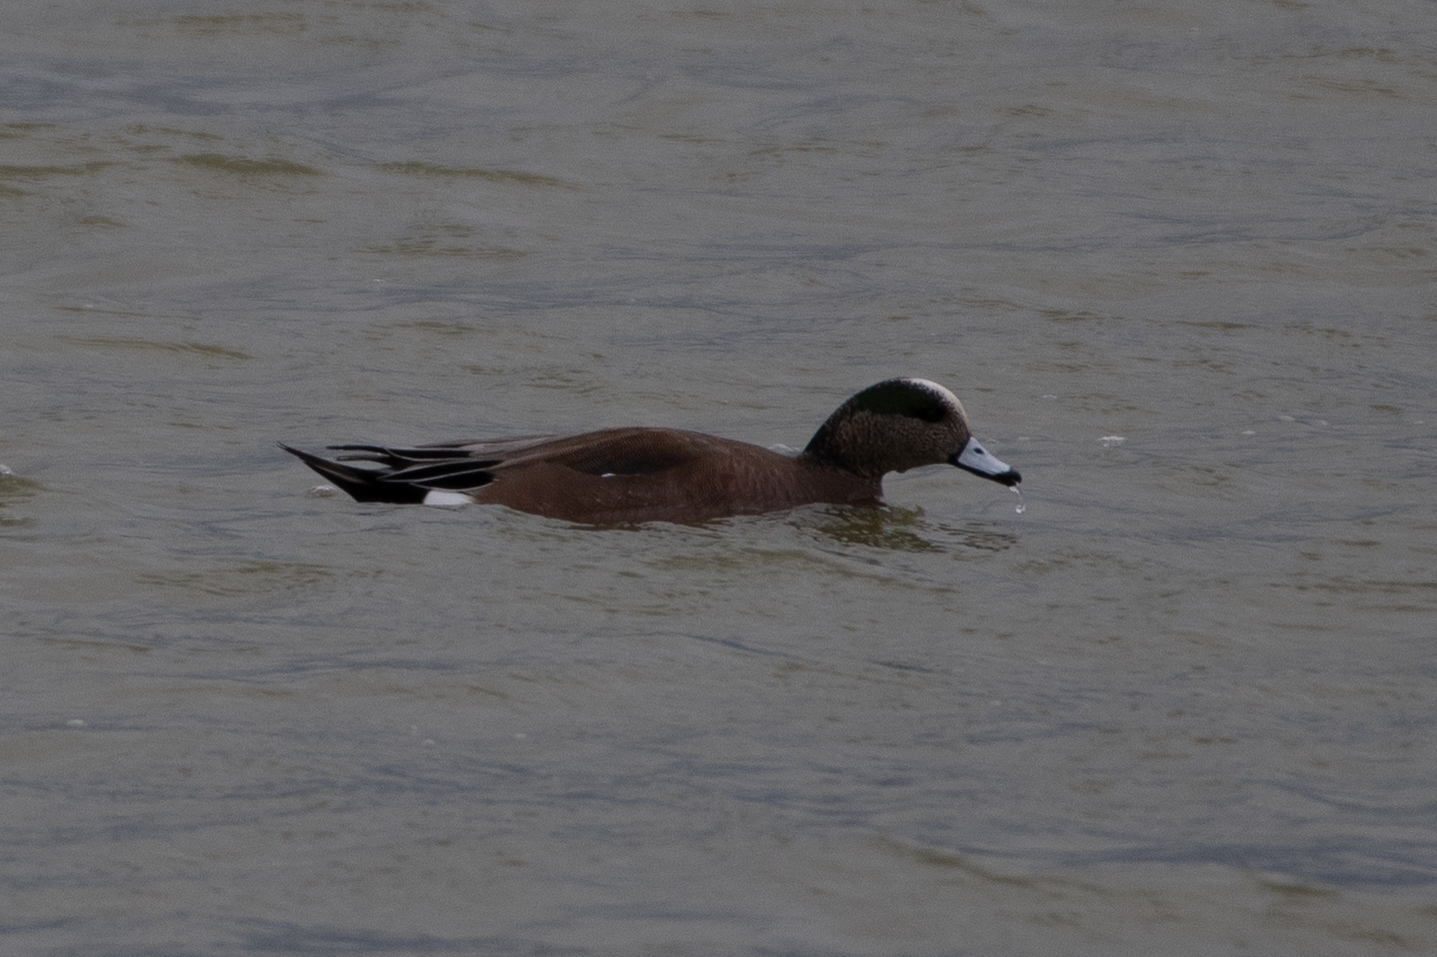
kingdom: Animalia
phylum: Chordata
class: Aves
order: Anseriformes
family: Anatidae
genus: Mareca
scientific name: Mareca americana
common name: American wigeon
